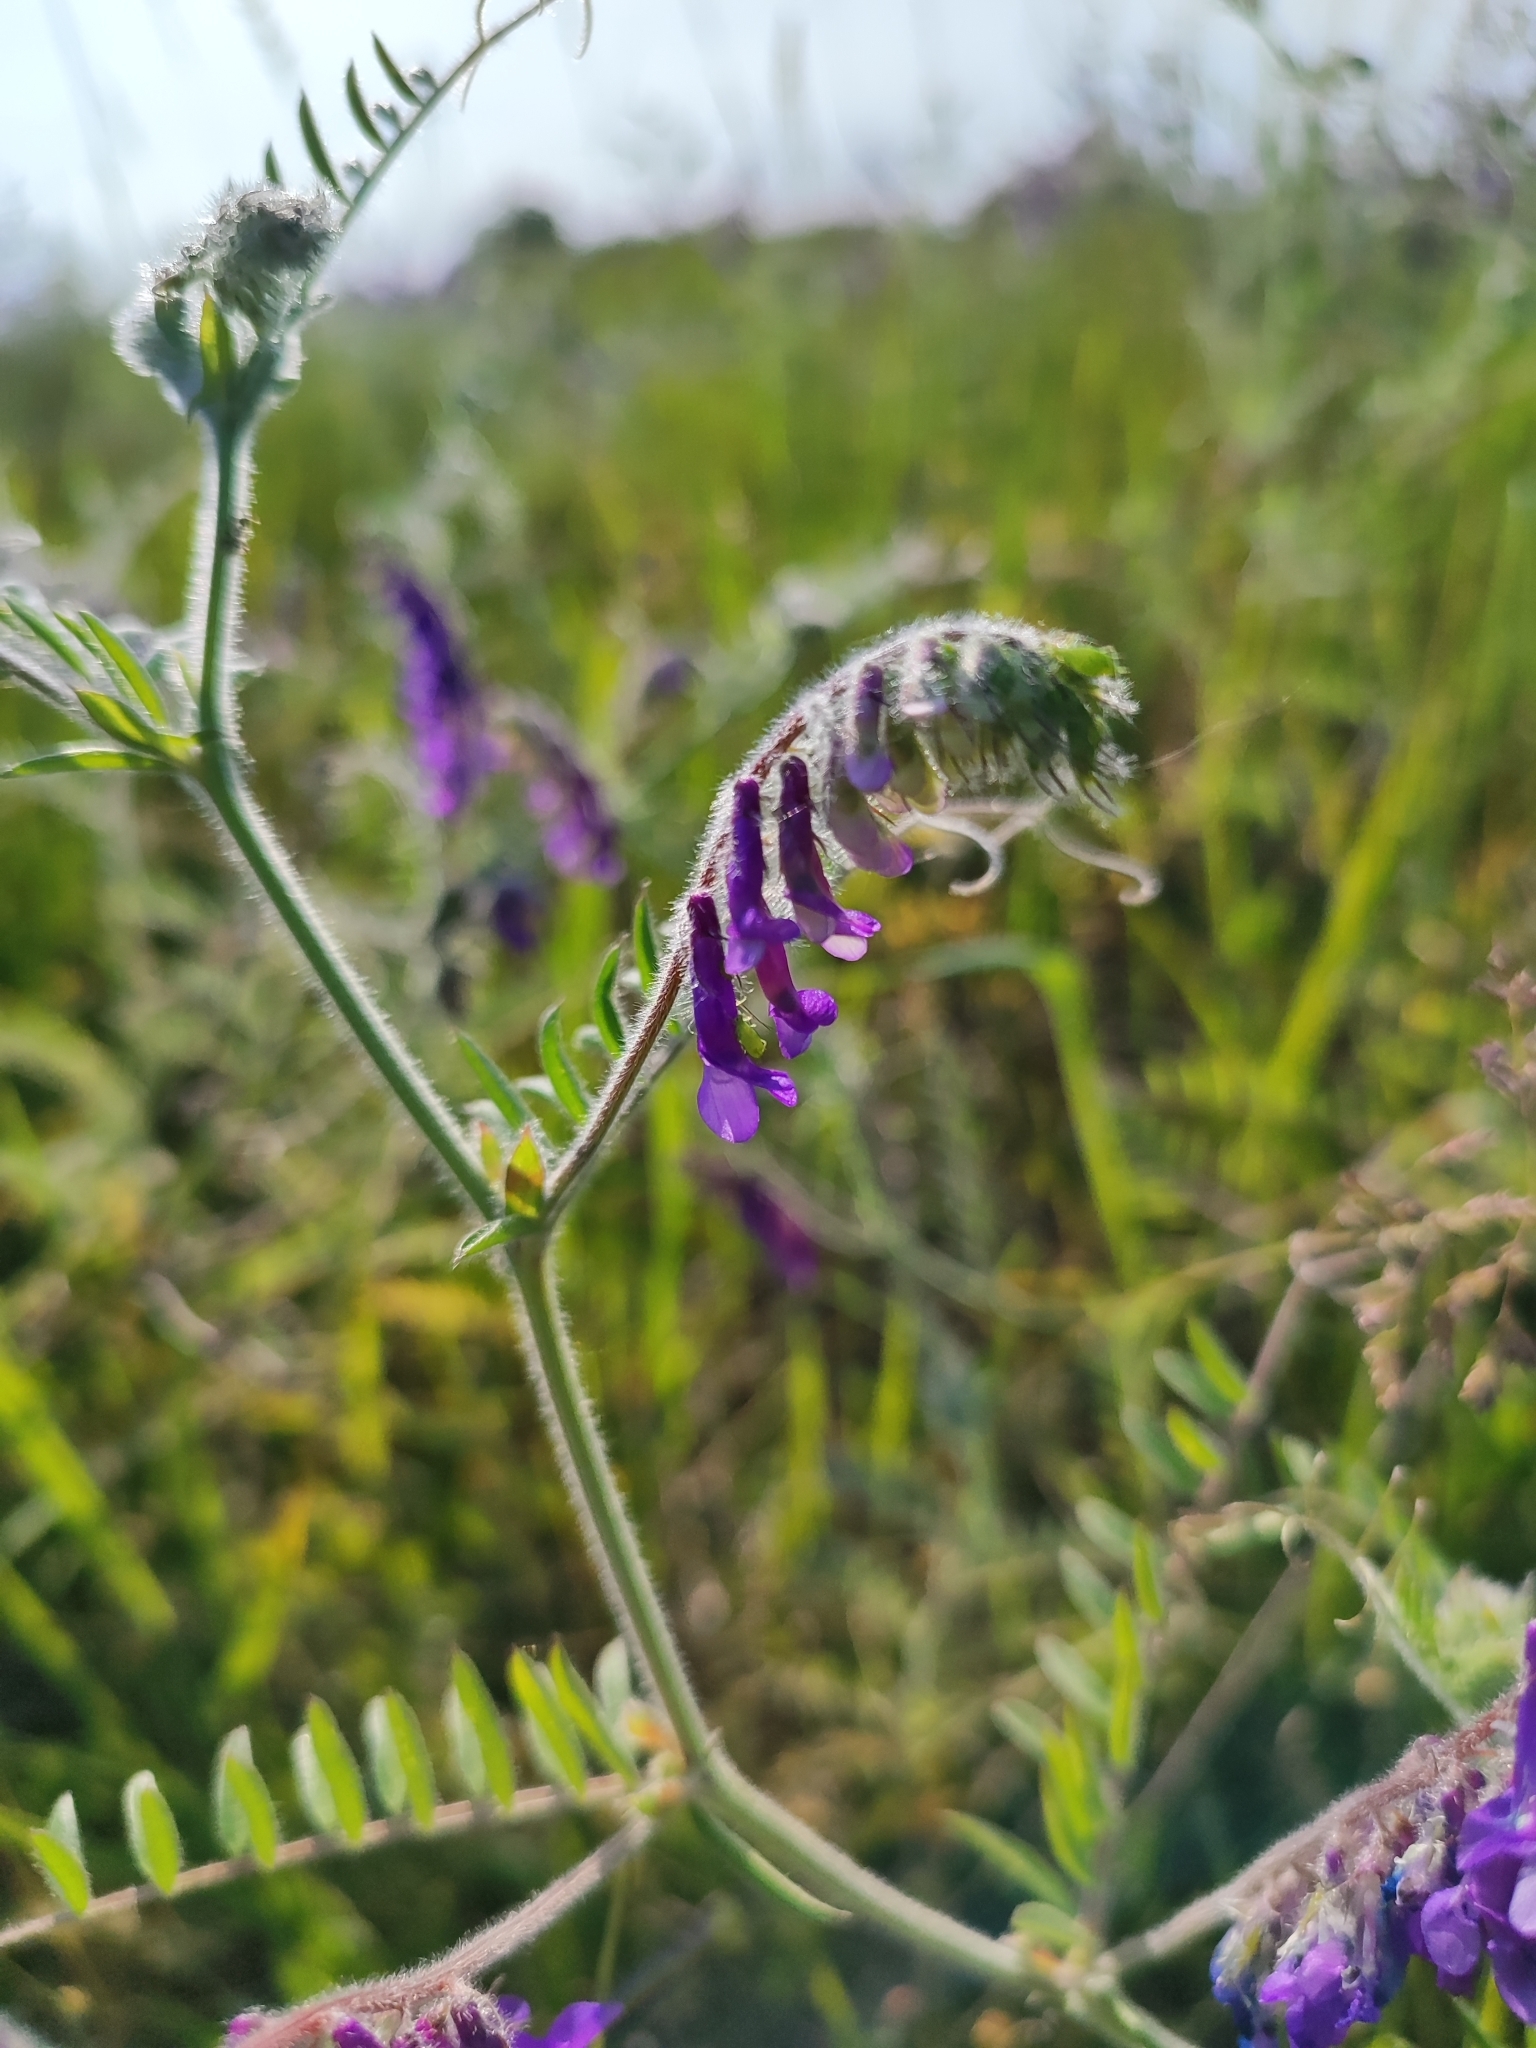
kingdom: Plantae
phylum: Tracheophyta
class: Magnoliopsida
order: Fabales
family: Fabaceae
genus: Vicia
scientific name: Vicia villosa
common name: Fodder vetch
